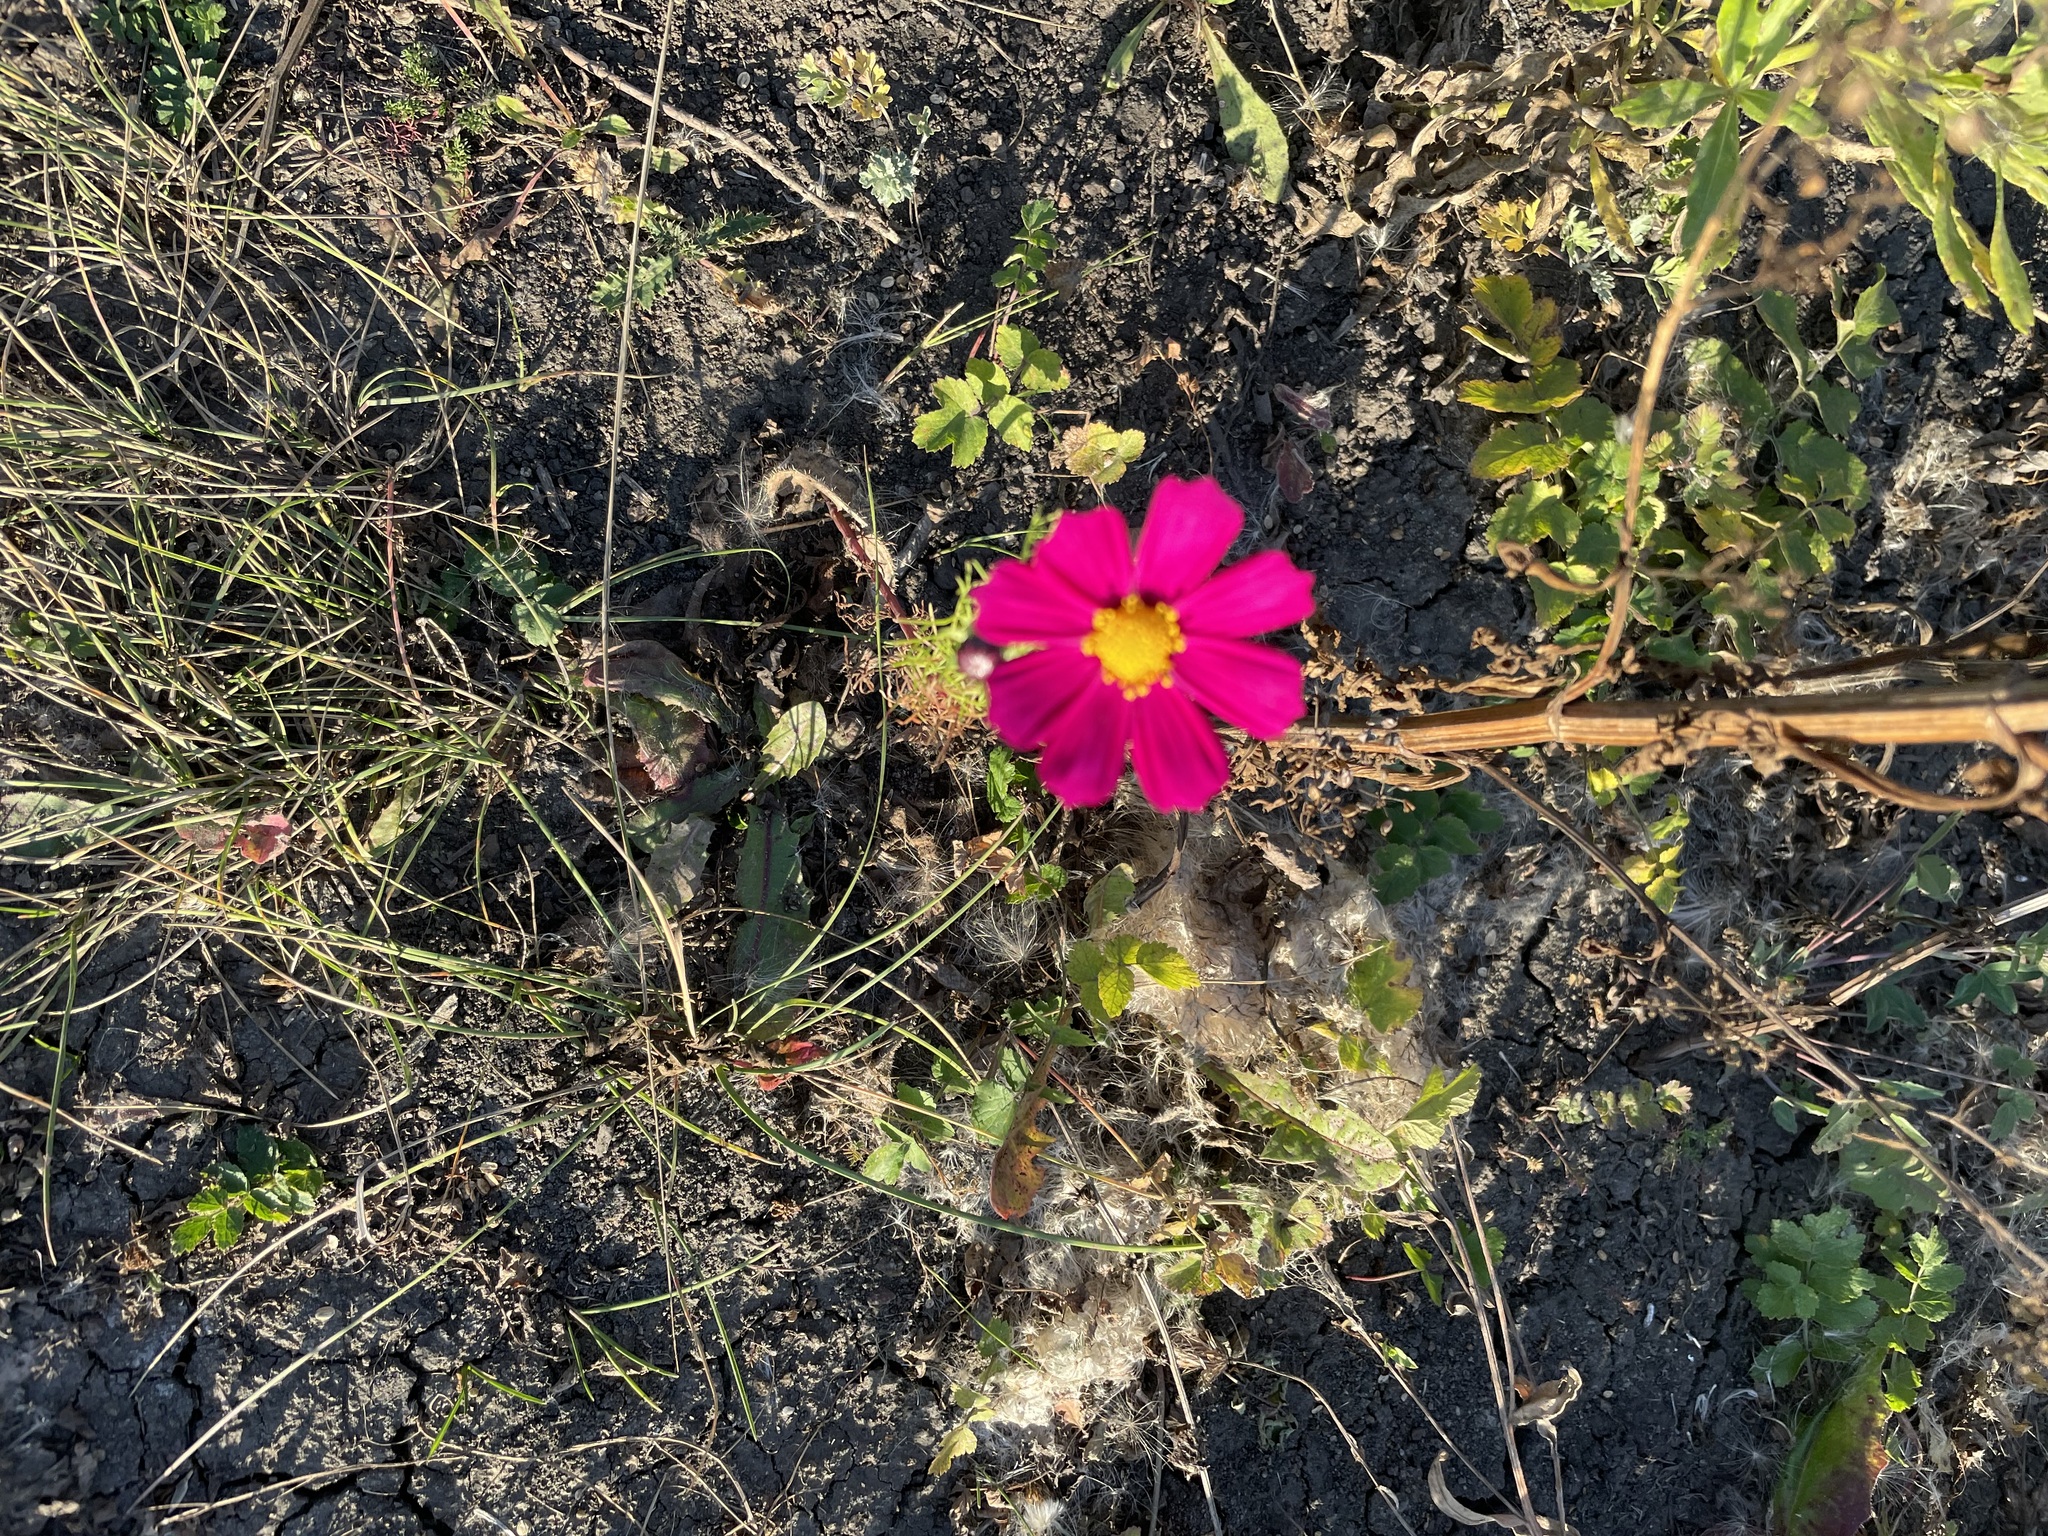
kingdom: Plantae
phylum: Tracheophyta
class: Magnoliopsida
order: Asterales
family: Asteraceae
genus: Cosmos
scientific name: Cosmos bipinnatus
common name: Garden cosmos
